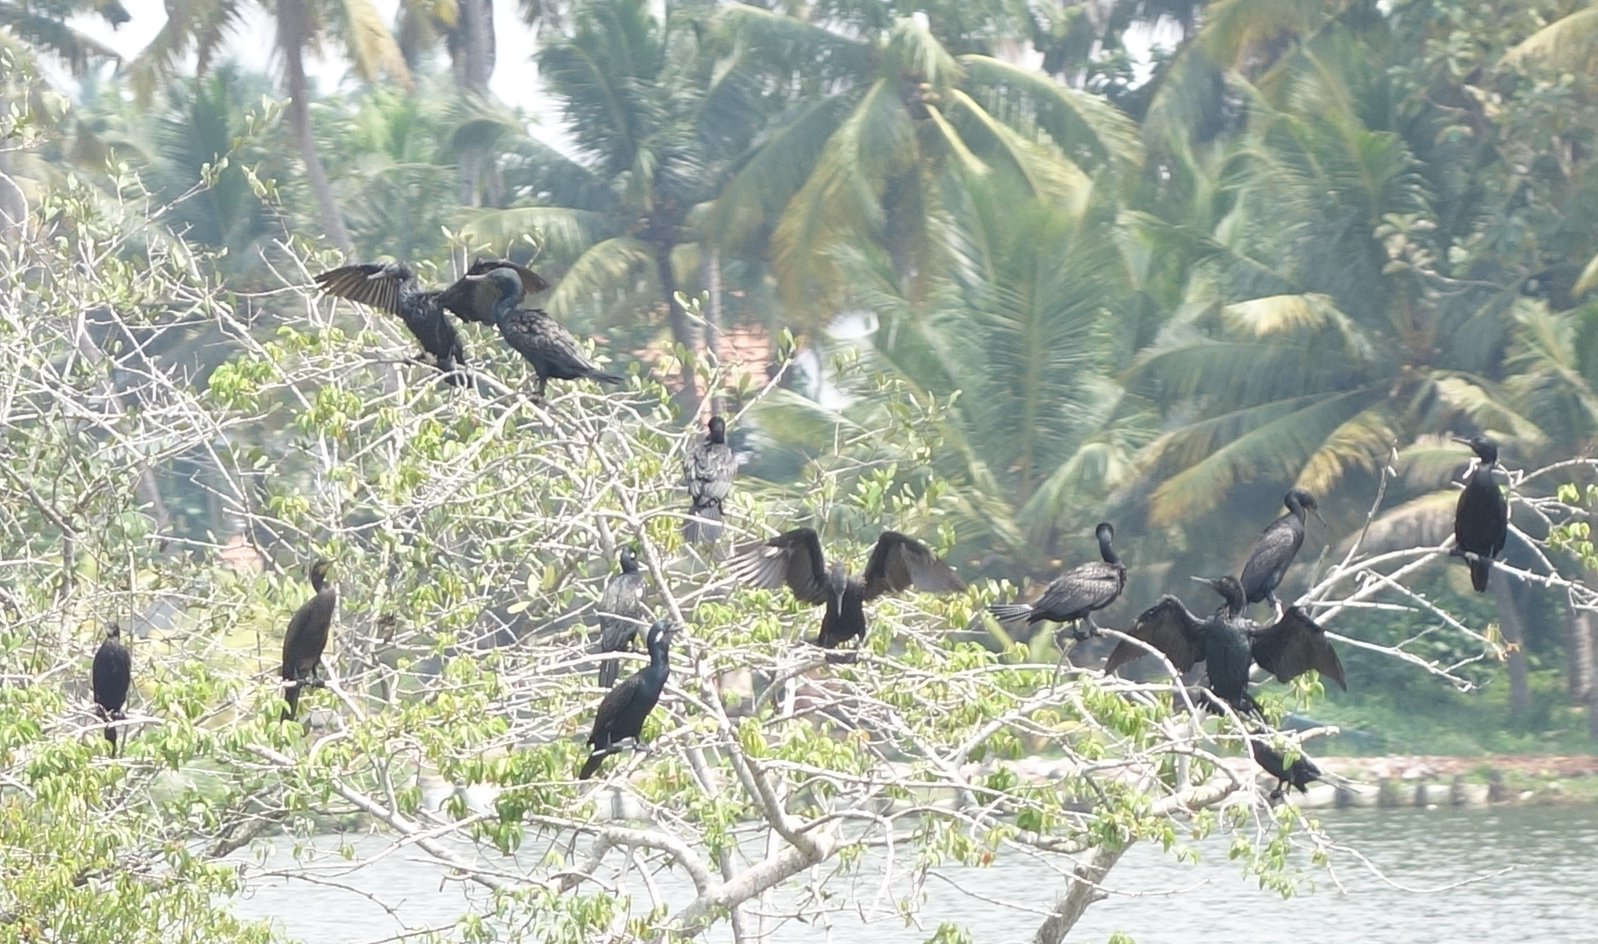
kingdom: Animalia
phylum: Chordata
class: Aves
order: Suliformes
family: Phalacrocoracidae
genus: Phalacrocorax
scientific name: Phalacrocorax fuscicollis
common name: Indian cormorant
